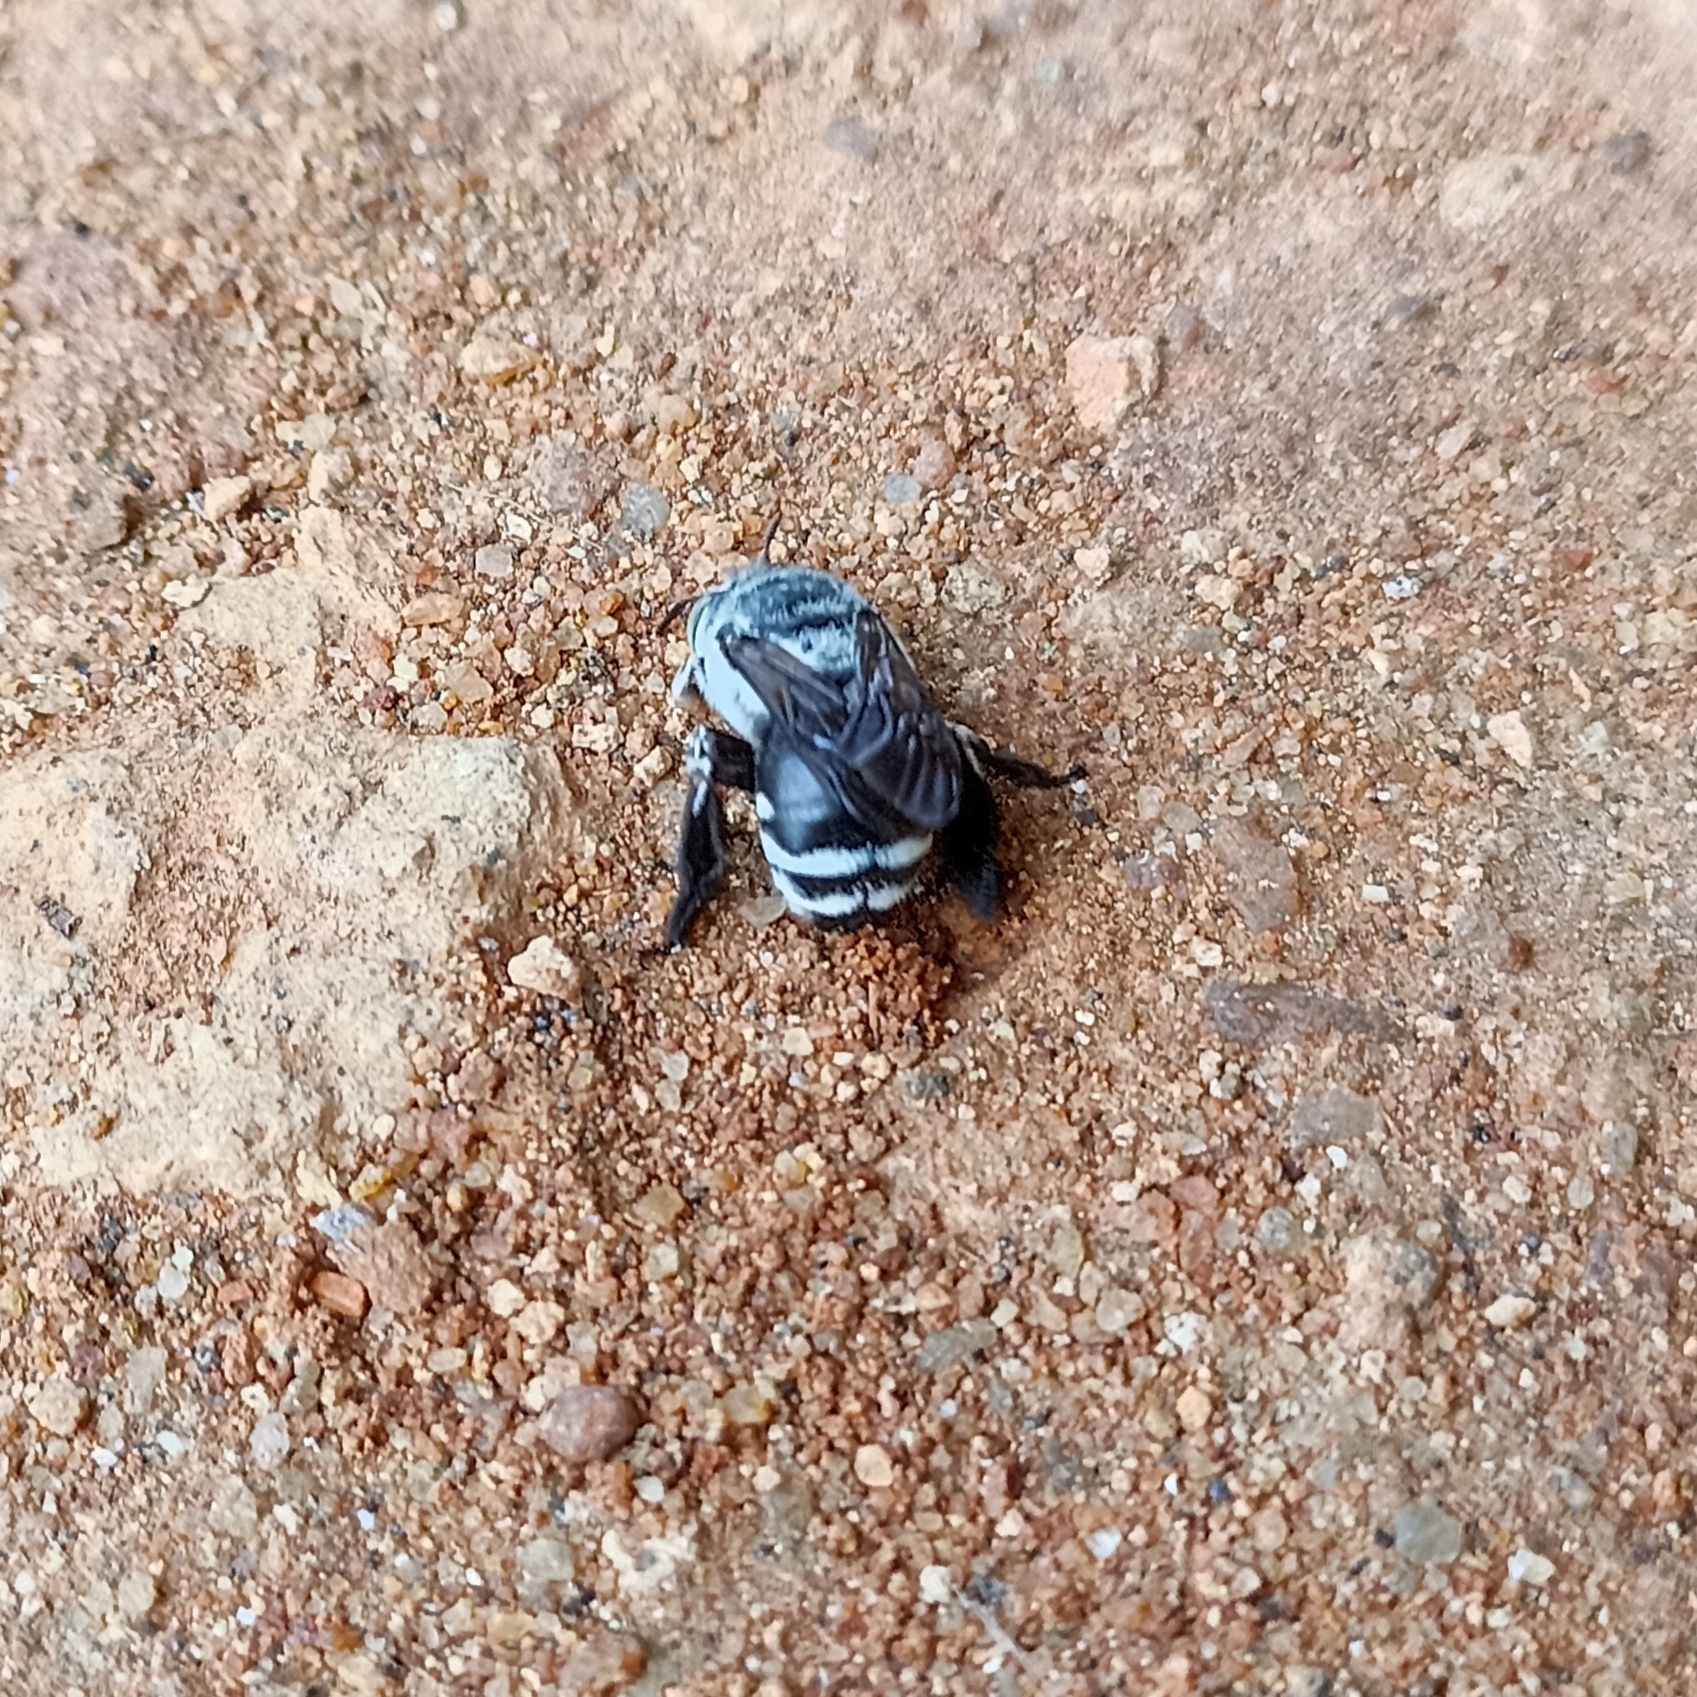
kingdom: Animalia
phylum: Arthropoda
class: Insecta
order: Hymenoptera
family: Apidae
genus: Amegilla
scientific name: Amegilla dizona
